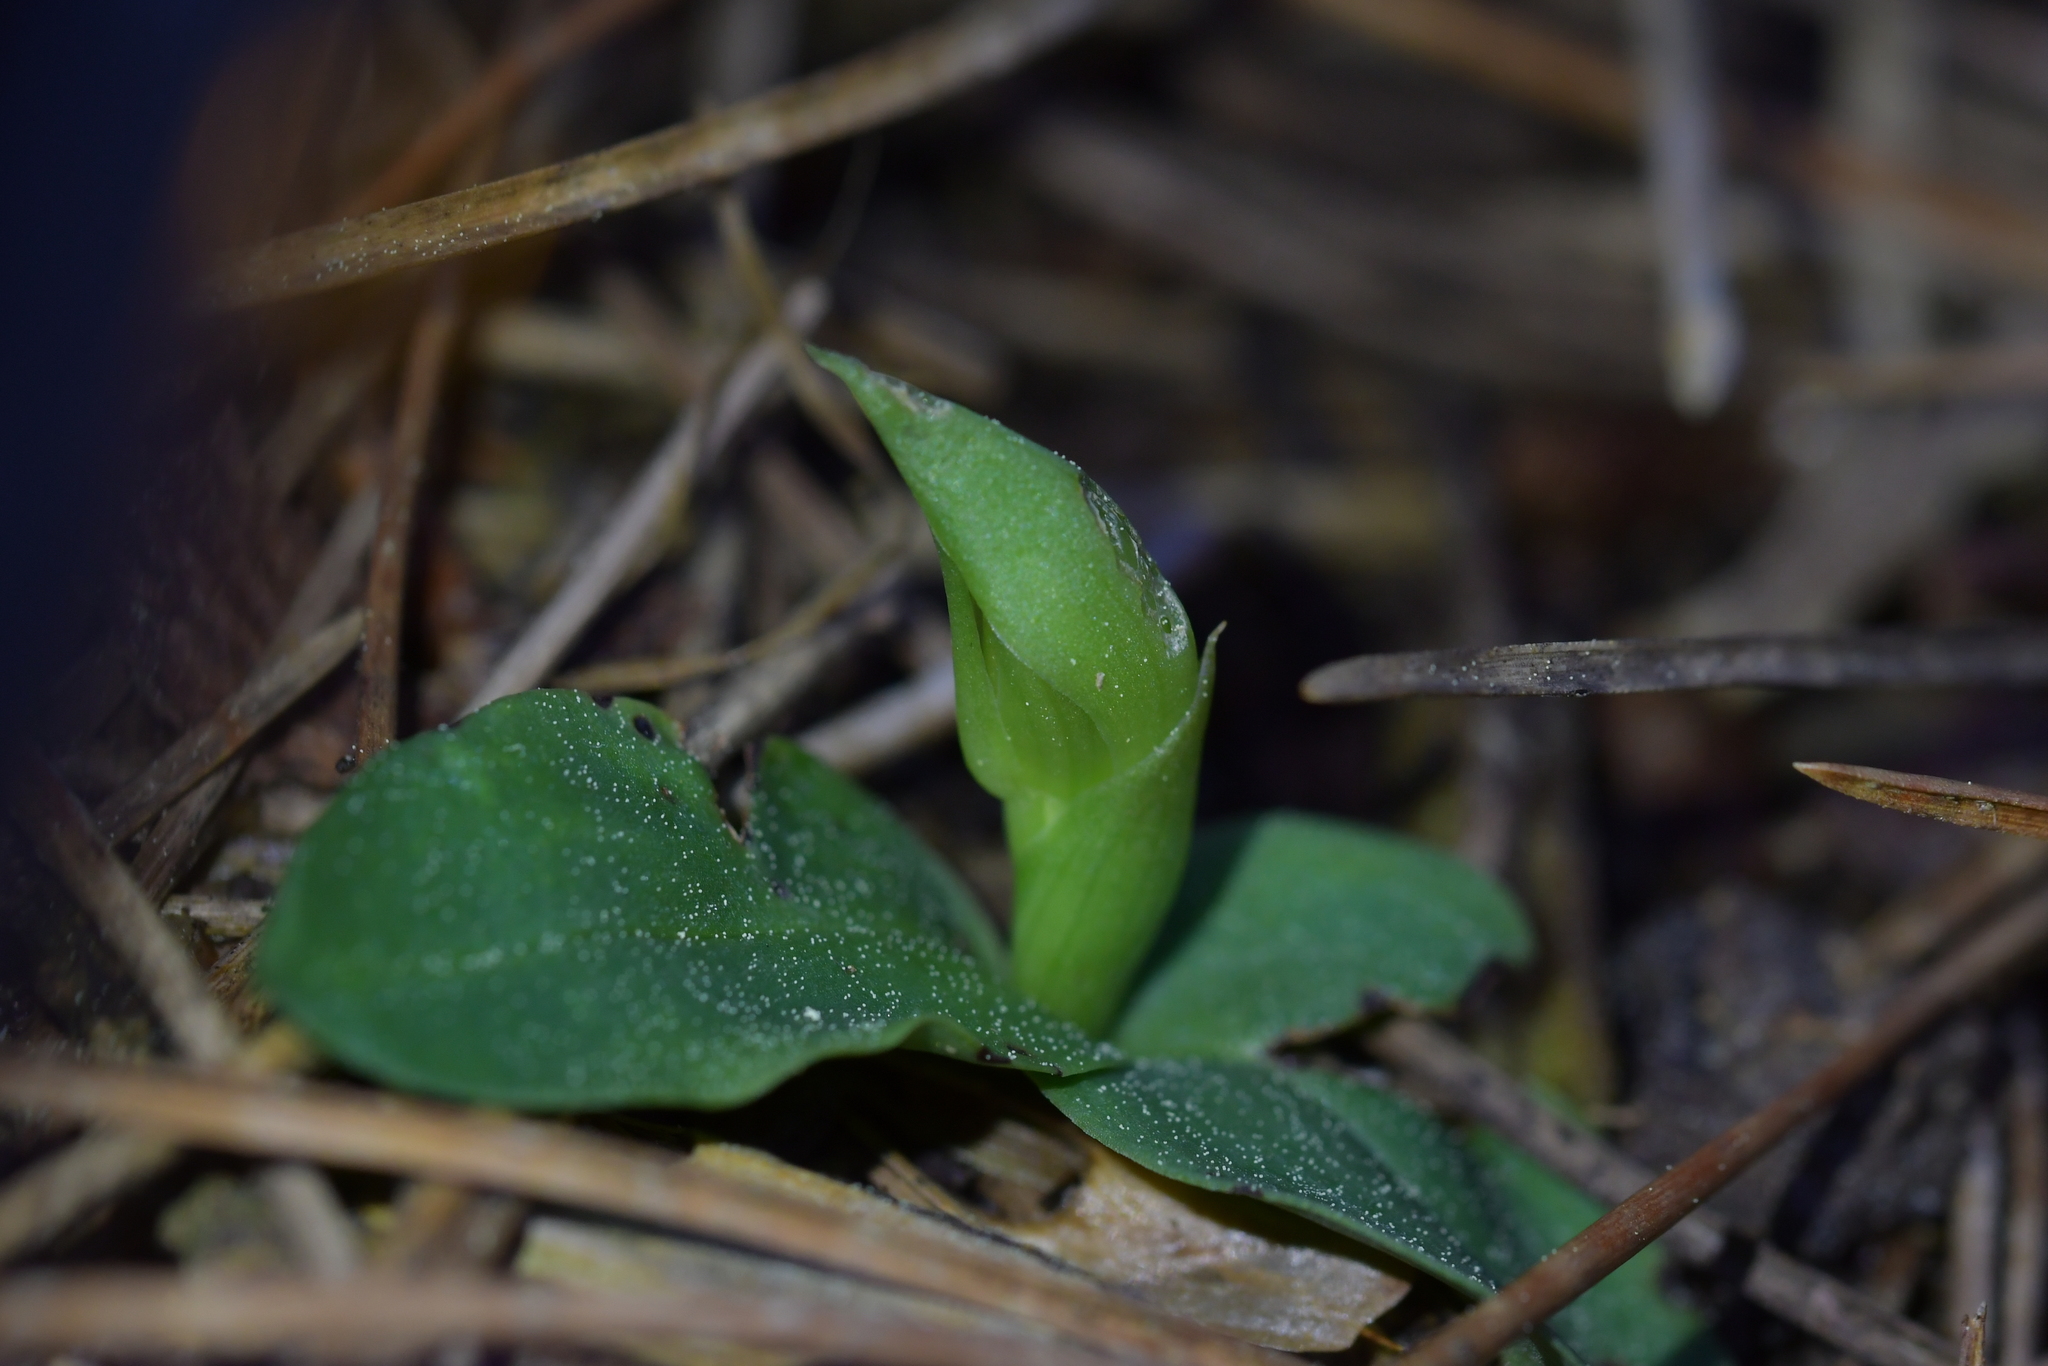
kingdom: Plantae
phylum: Tracheophyta
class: Liliopsida
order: Asparagales
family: Orchidaceae
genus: Chiloglottis
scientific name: Chiloglottis cornuta
